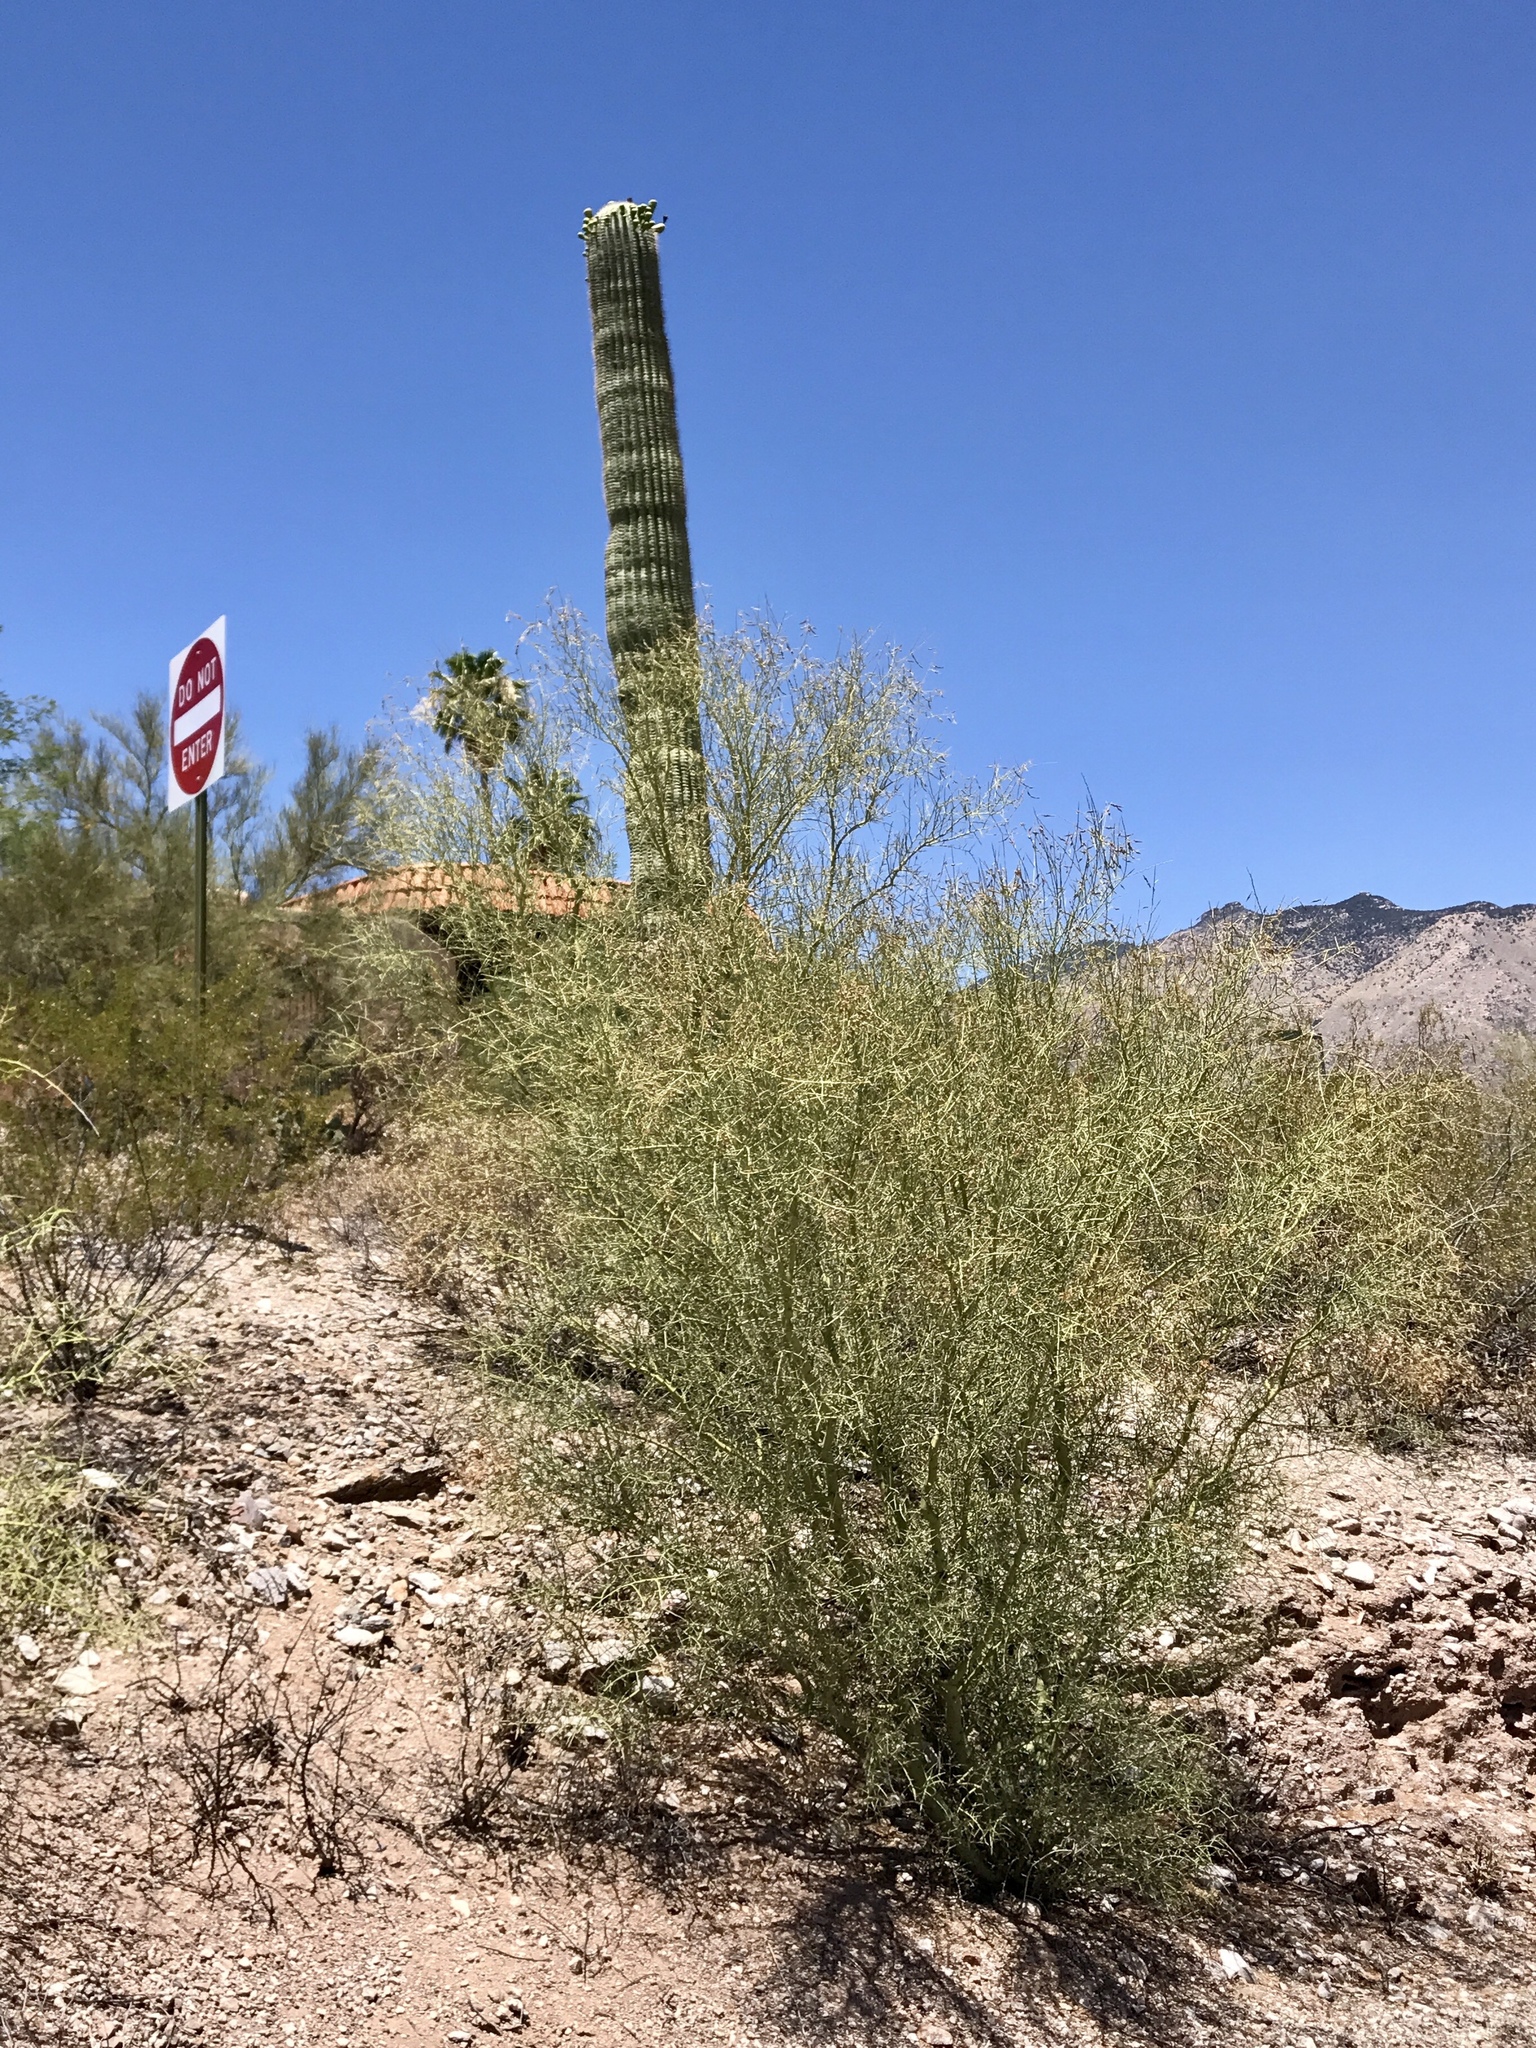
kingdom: Plantae
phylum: Tracheophyta
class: Magnoliopsida
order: Fabales
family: Fabaceae
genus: Parkinsonia
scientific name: Parkinsonia microphylla
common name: Yellow paloverde
